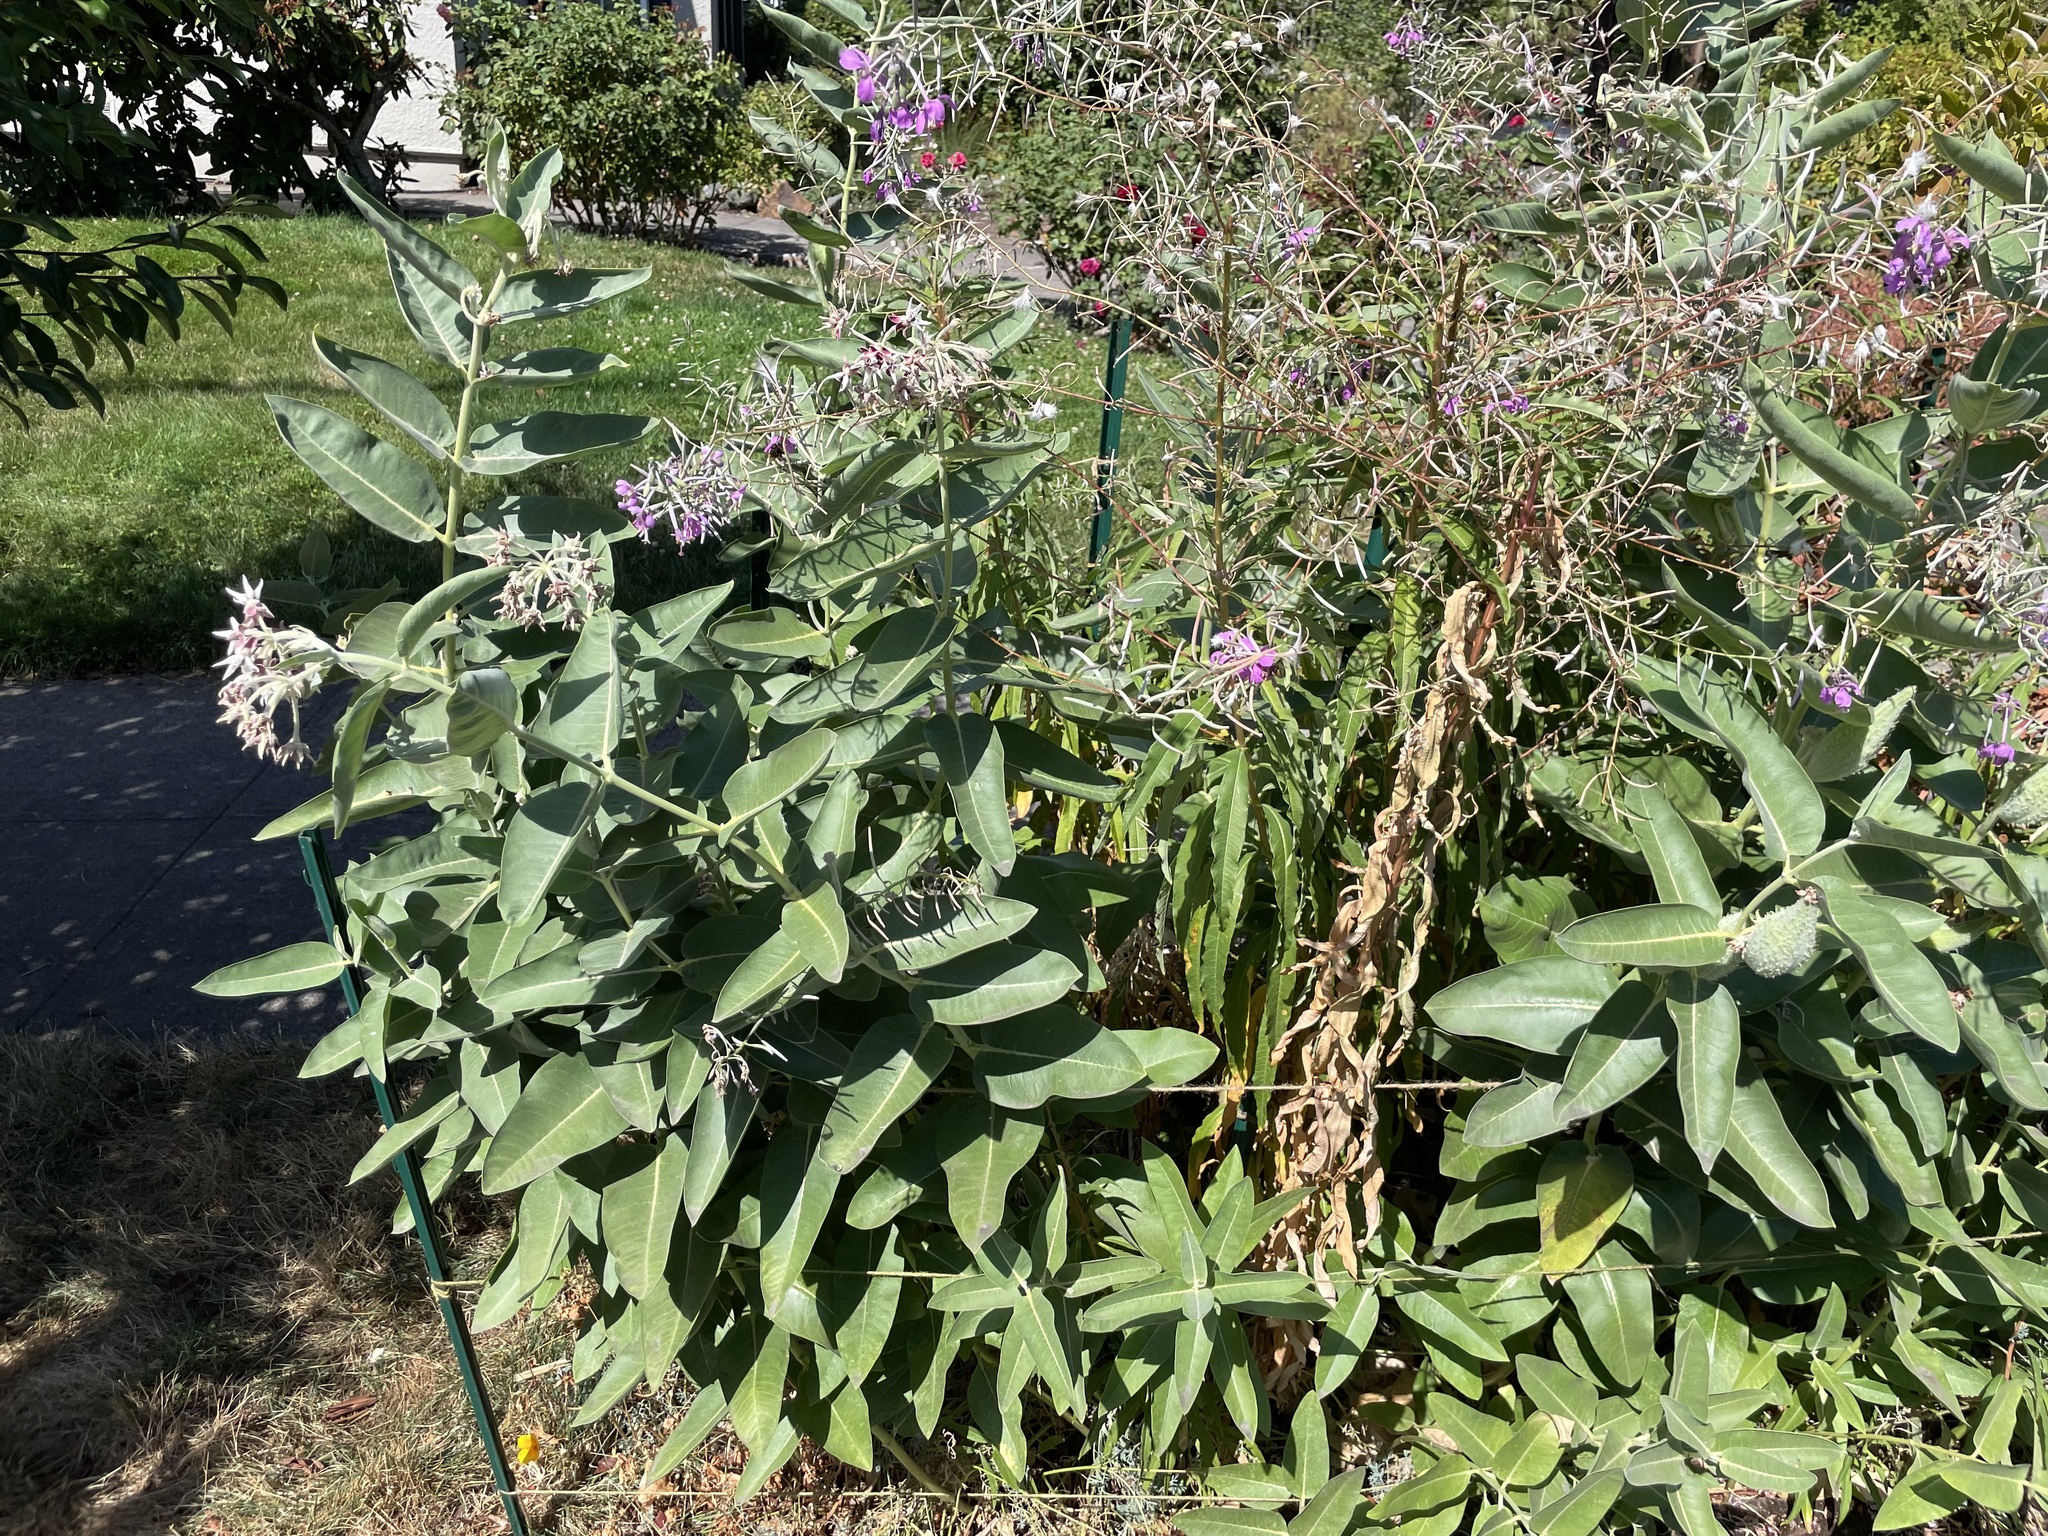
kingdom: Plantae
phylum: Tracheophyta
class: Magnoliopsida
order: Gentianales
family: Apocynaceae
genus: Asclepias
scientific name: Asclepias speciosa
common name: Showy milkweed
